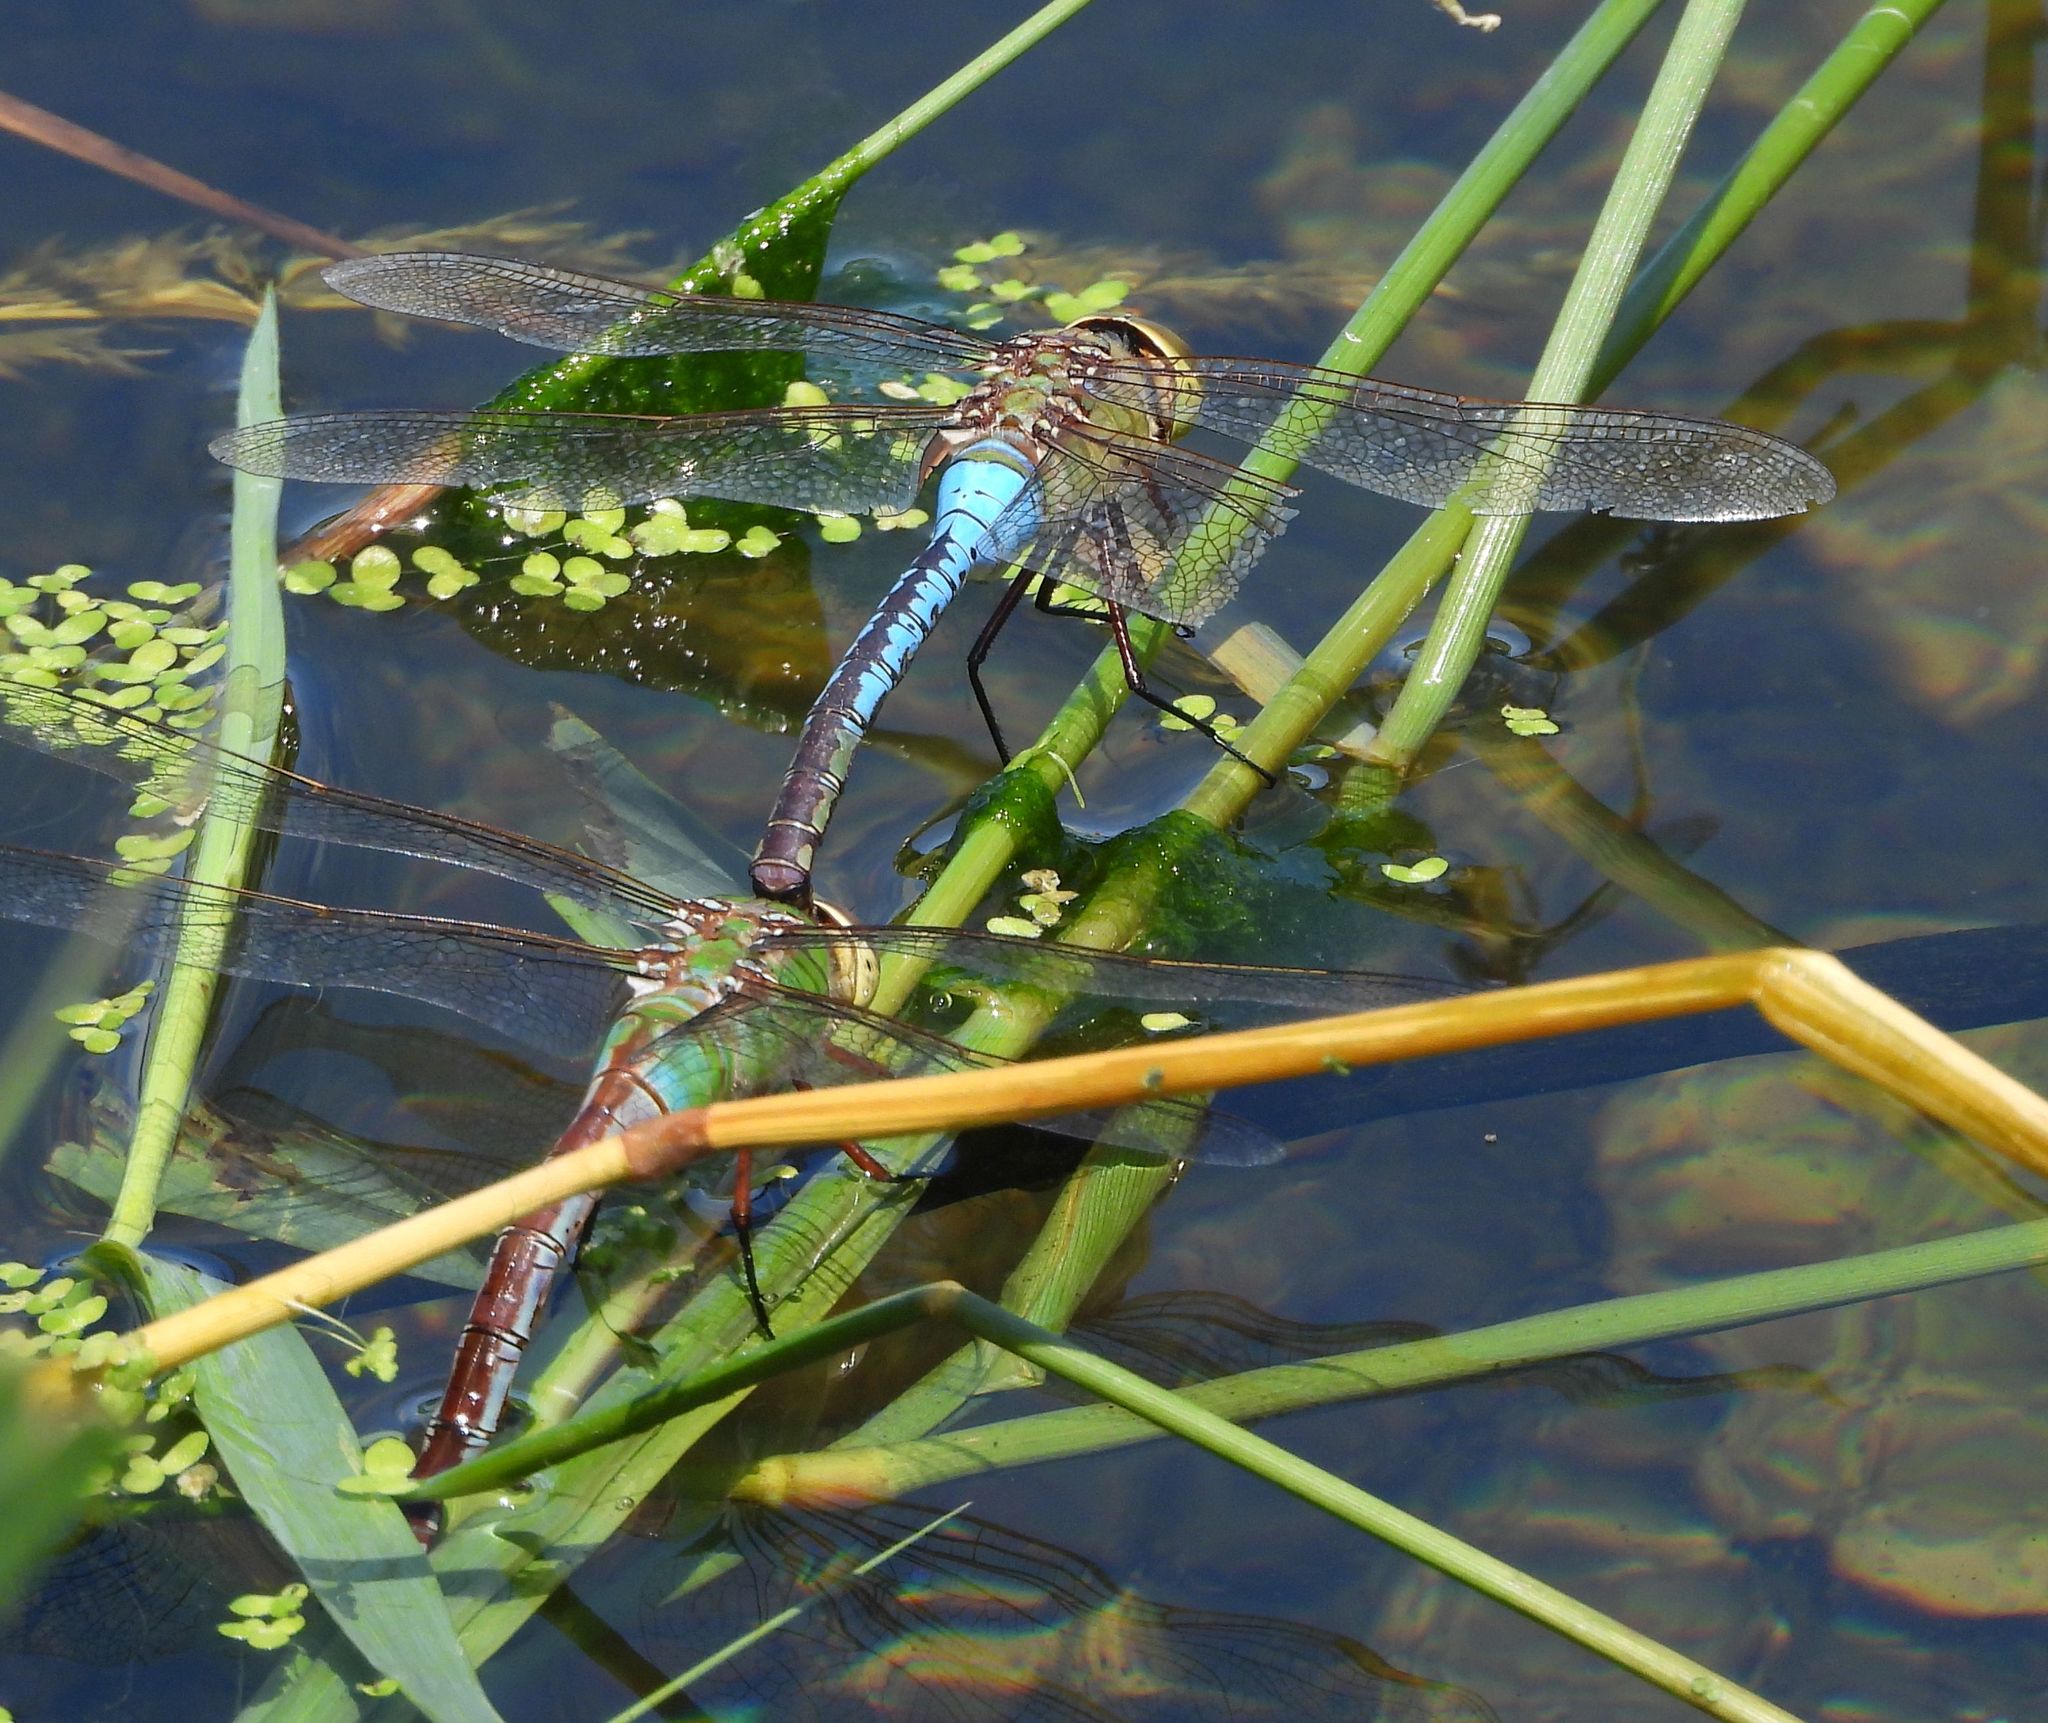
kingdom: Animalia
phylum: Arthropoda
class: Insecta
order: Odonata
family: Aeshnidae
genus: Anax
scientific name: Anax junius
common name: Common green darner
